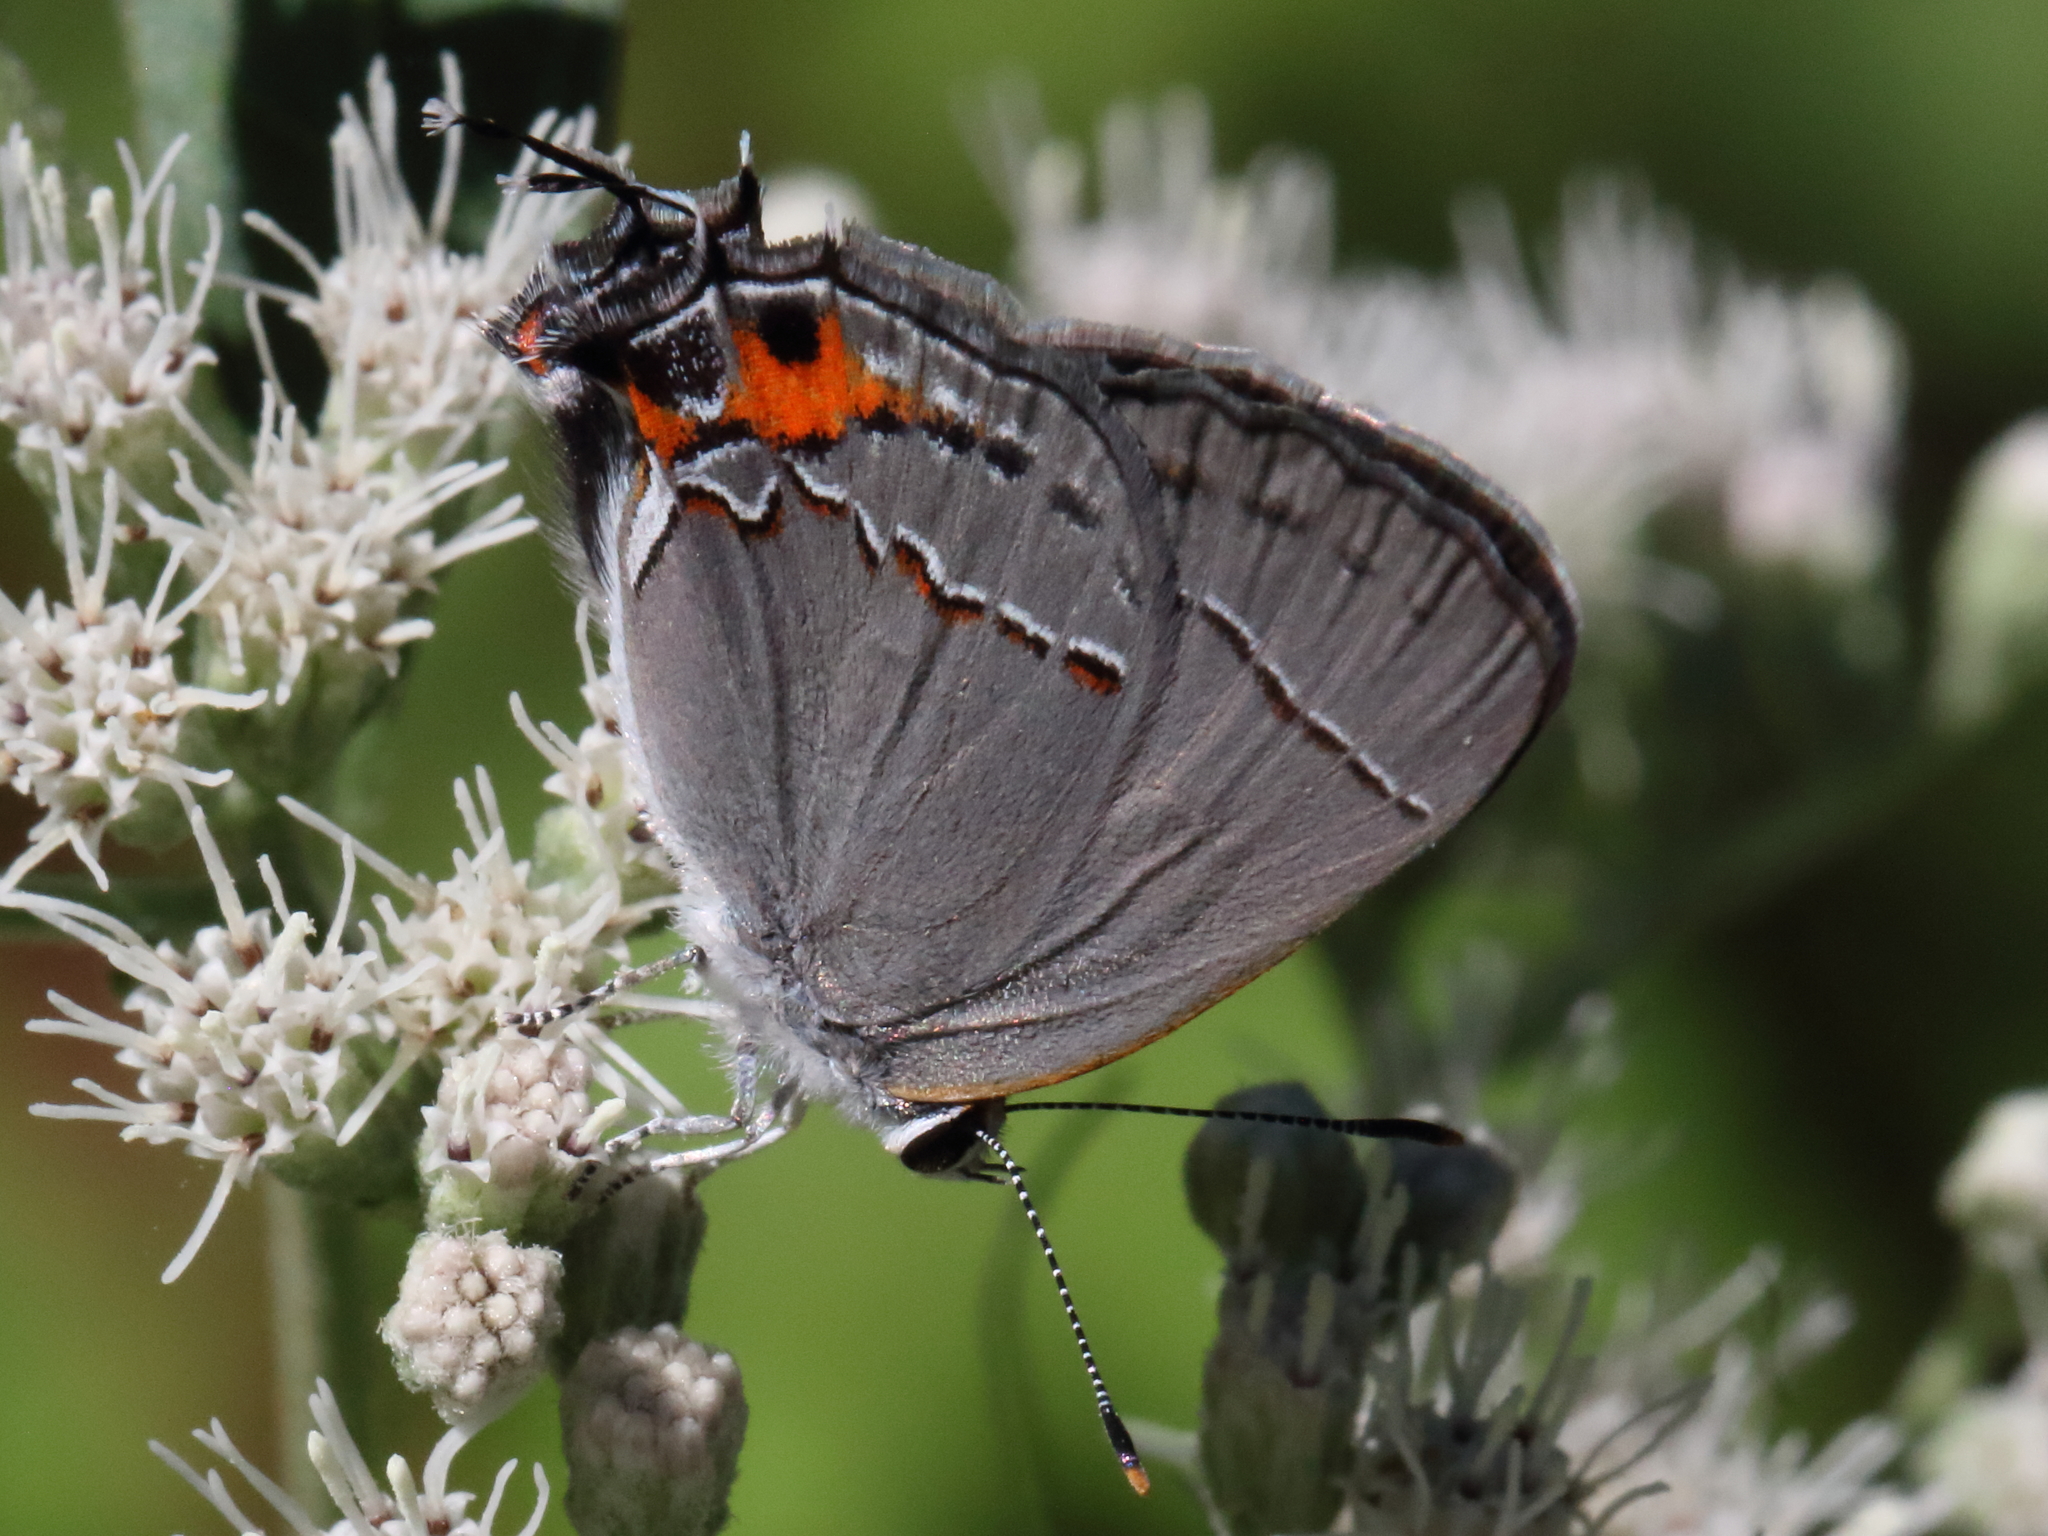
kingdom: Animalia
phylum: Arthropoda
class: Insecta
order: Lepidoptera
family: Lycaenidae
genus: Strymon
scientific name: Strymon melinus
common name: Gray hairstreak
